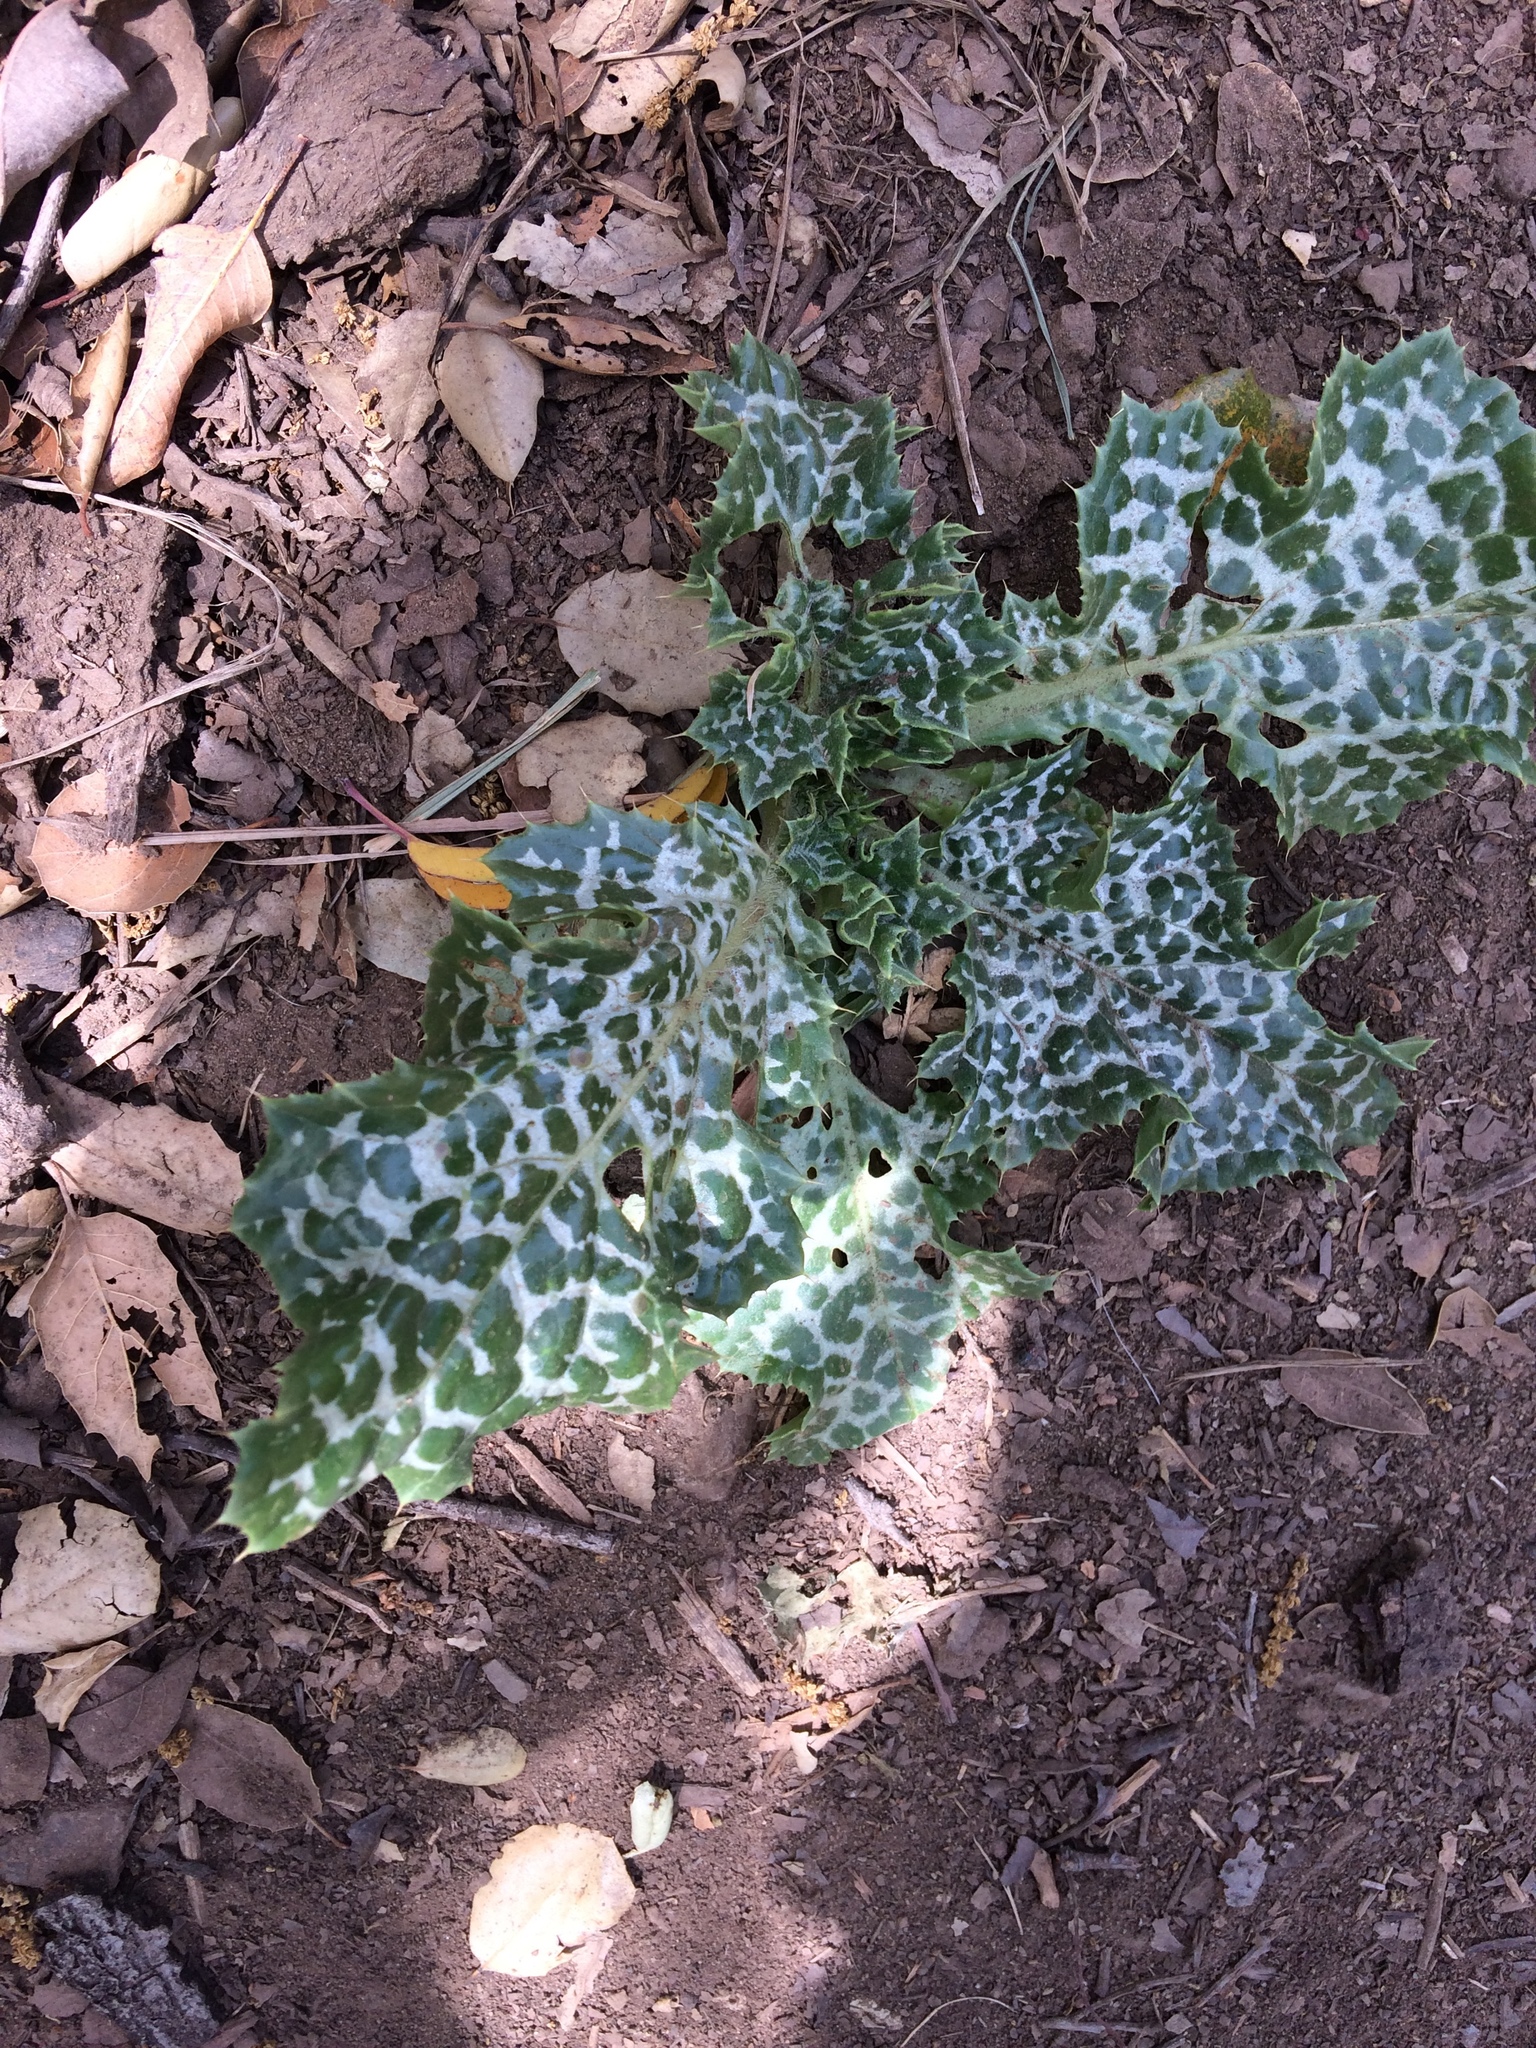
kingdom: Plantae
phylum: Tracheophyta
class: Magnoliopsida
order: Asterales
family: Asteraceae
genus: Silybum
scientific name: Silybum marianum
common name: Milk thistle
